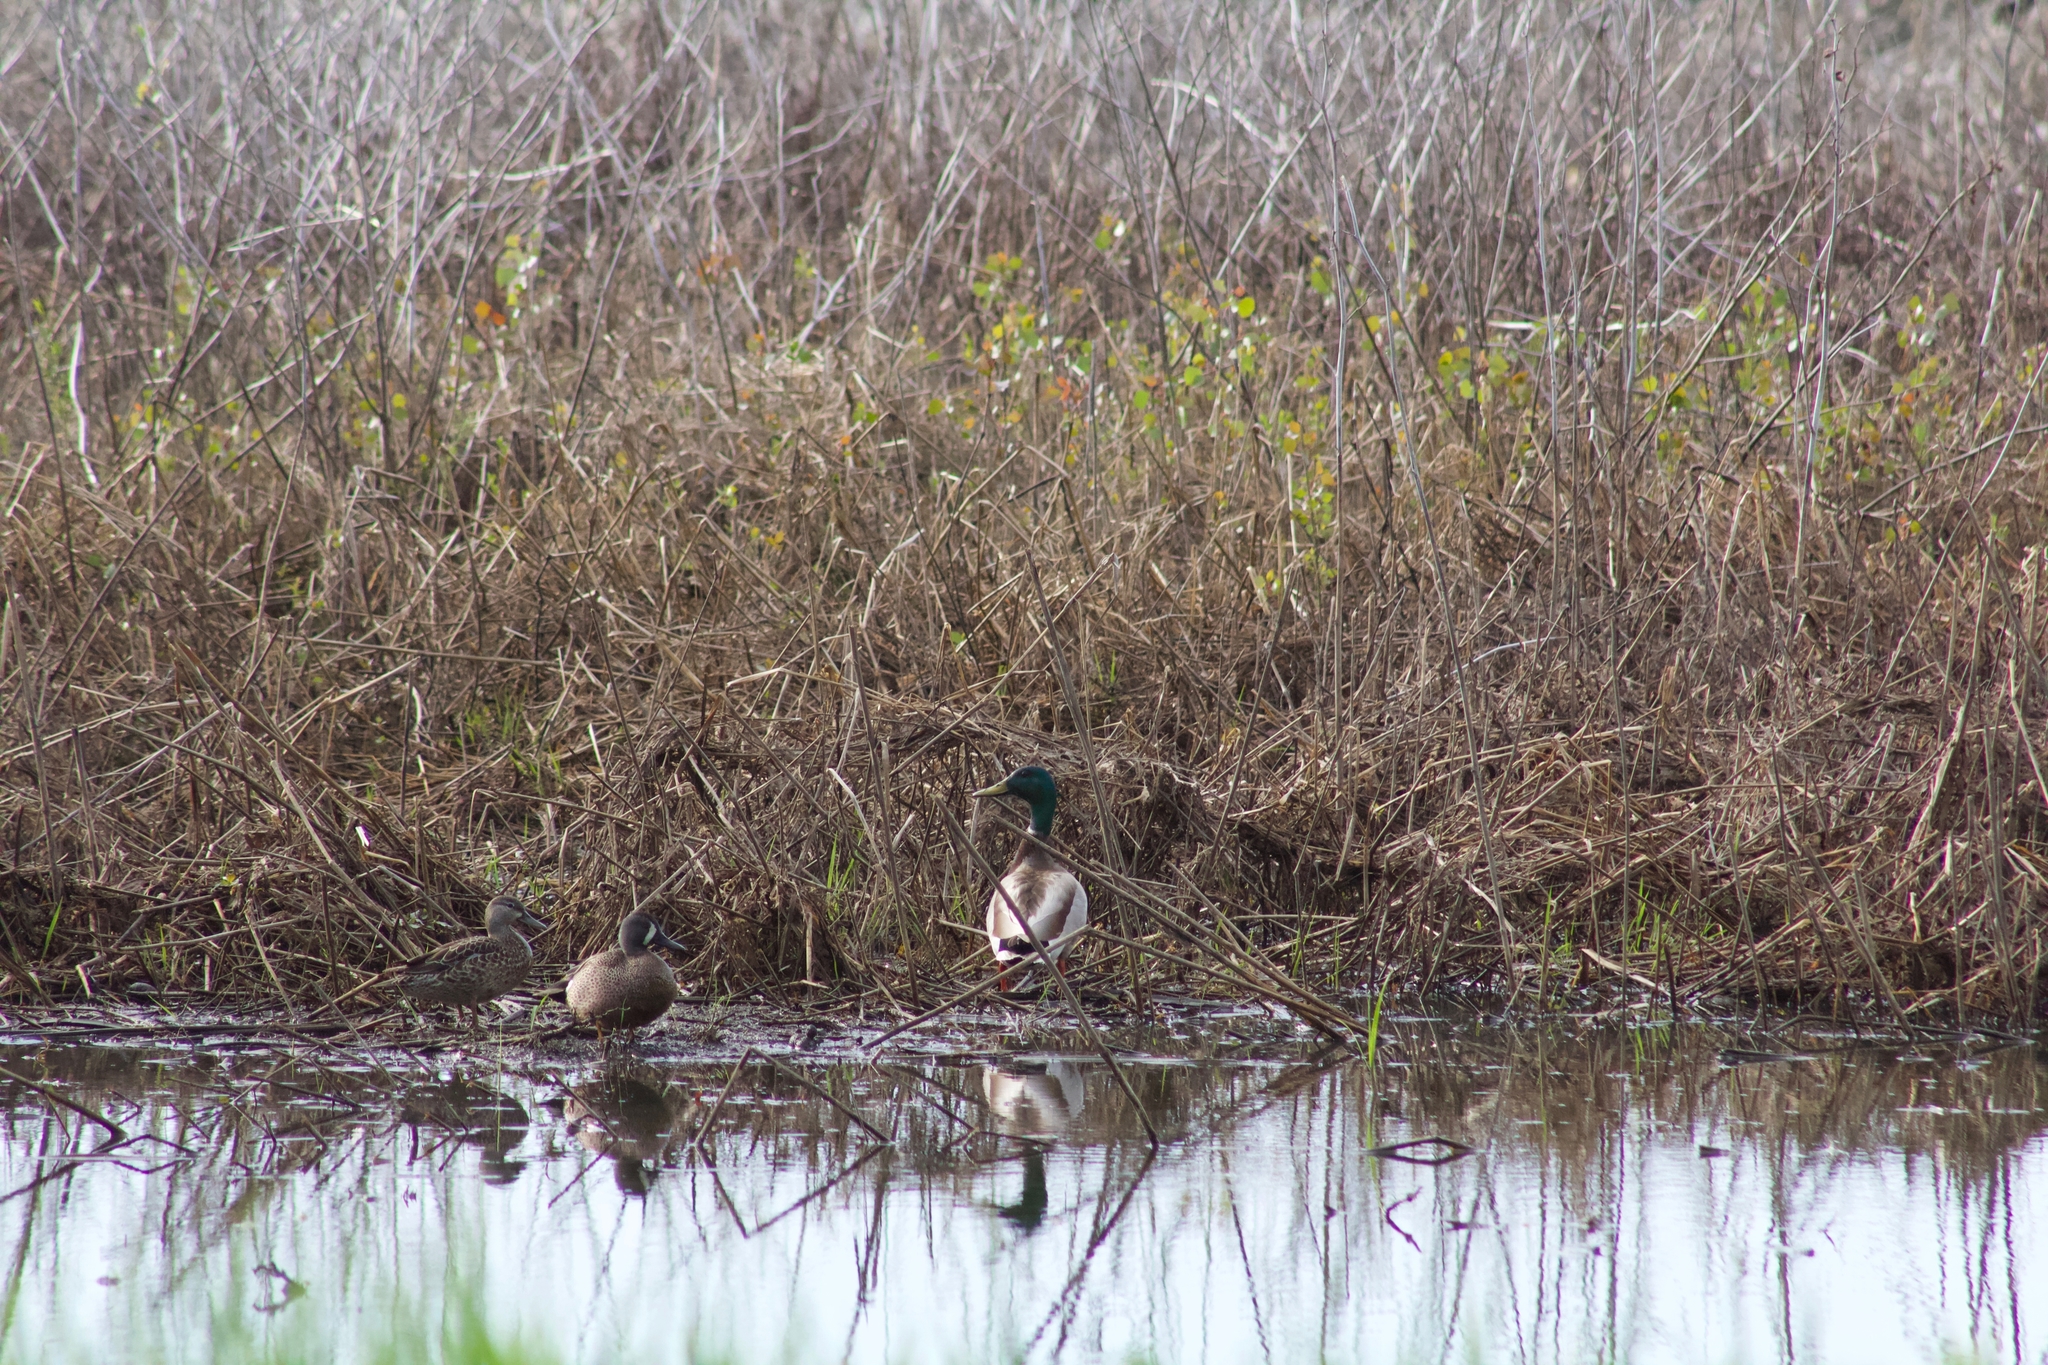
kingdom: Animalia
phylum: Chordata
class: Aves
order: Anseriformes
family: Anatidae
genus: Anas
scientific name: Anas platyrhynchos
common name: Mallard
